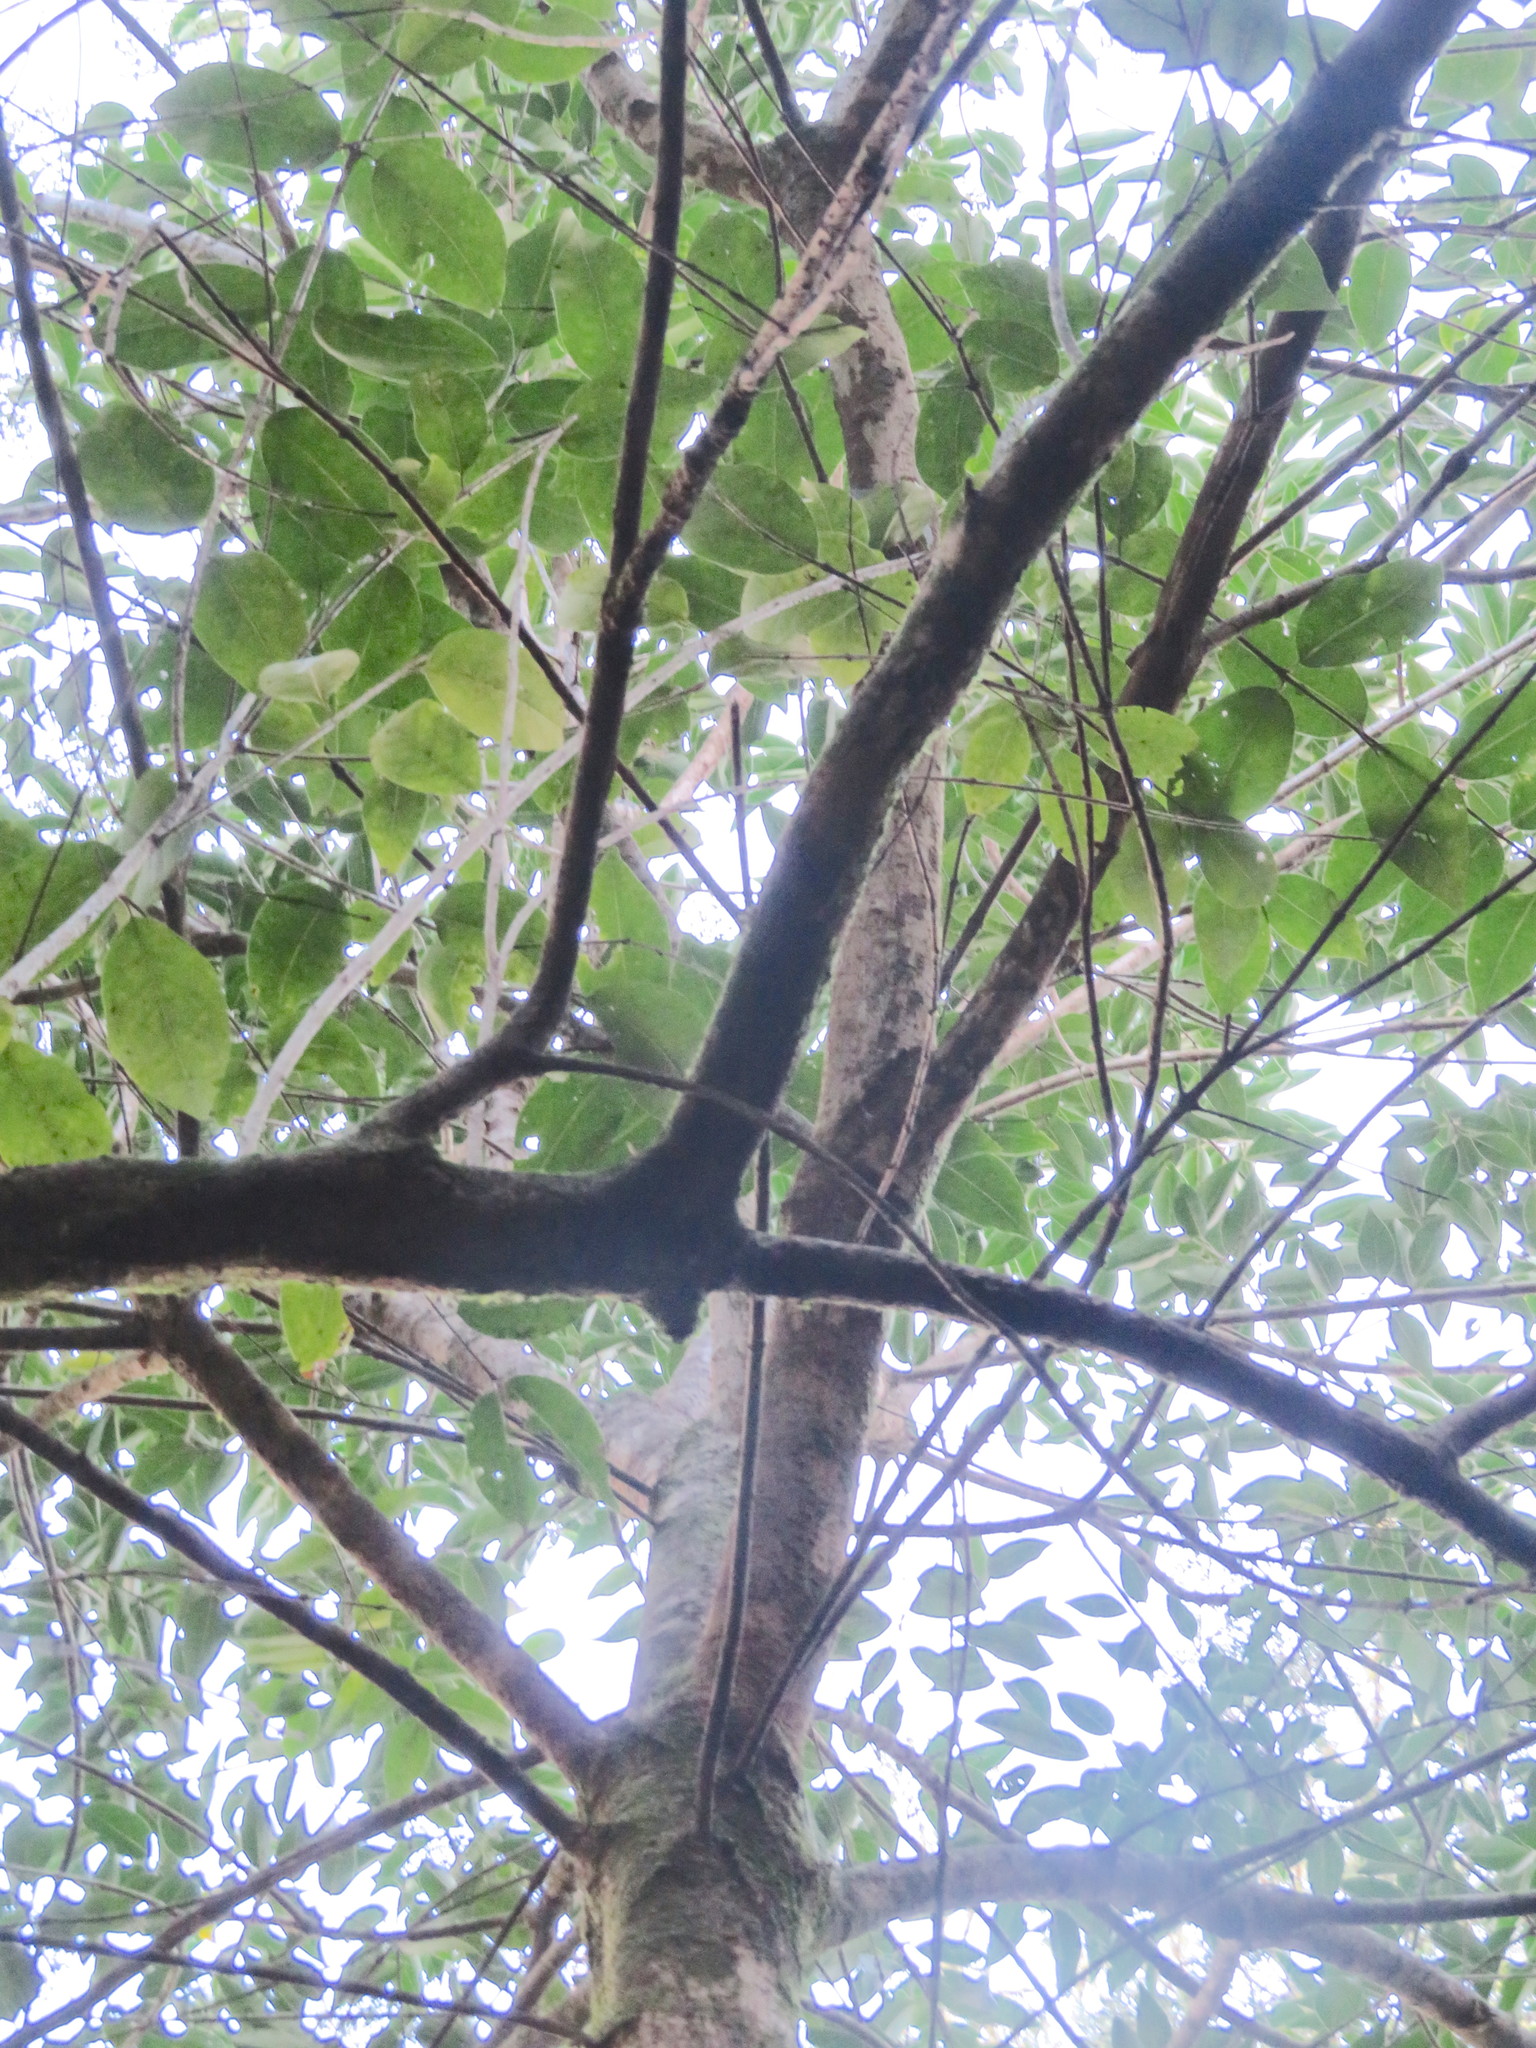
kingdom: Plantae
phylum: Tracheophyta
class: Magnoliopsida
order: Lamiales
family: Oleaceae
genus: Ligustrum
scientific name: Ligustrum lucidum
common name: Glossy privet
